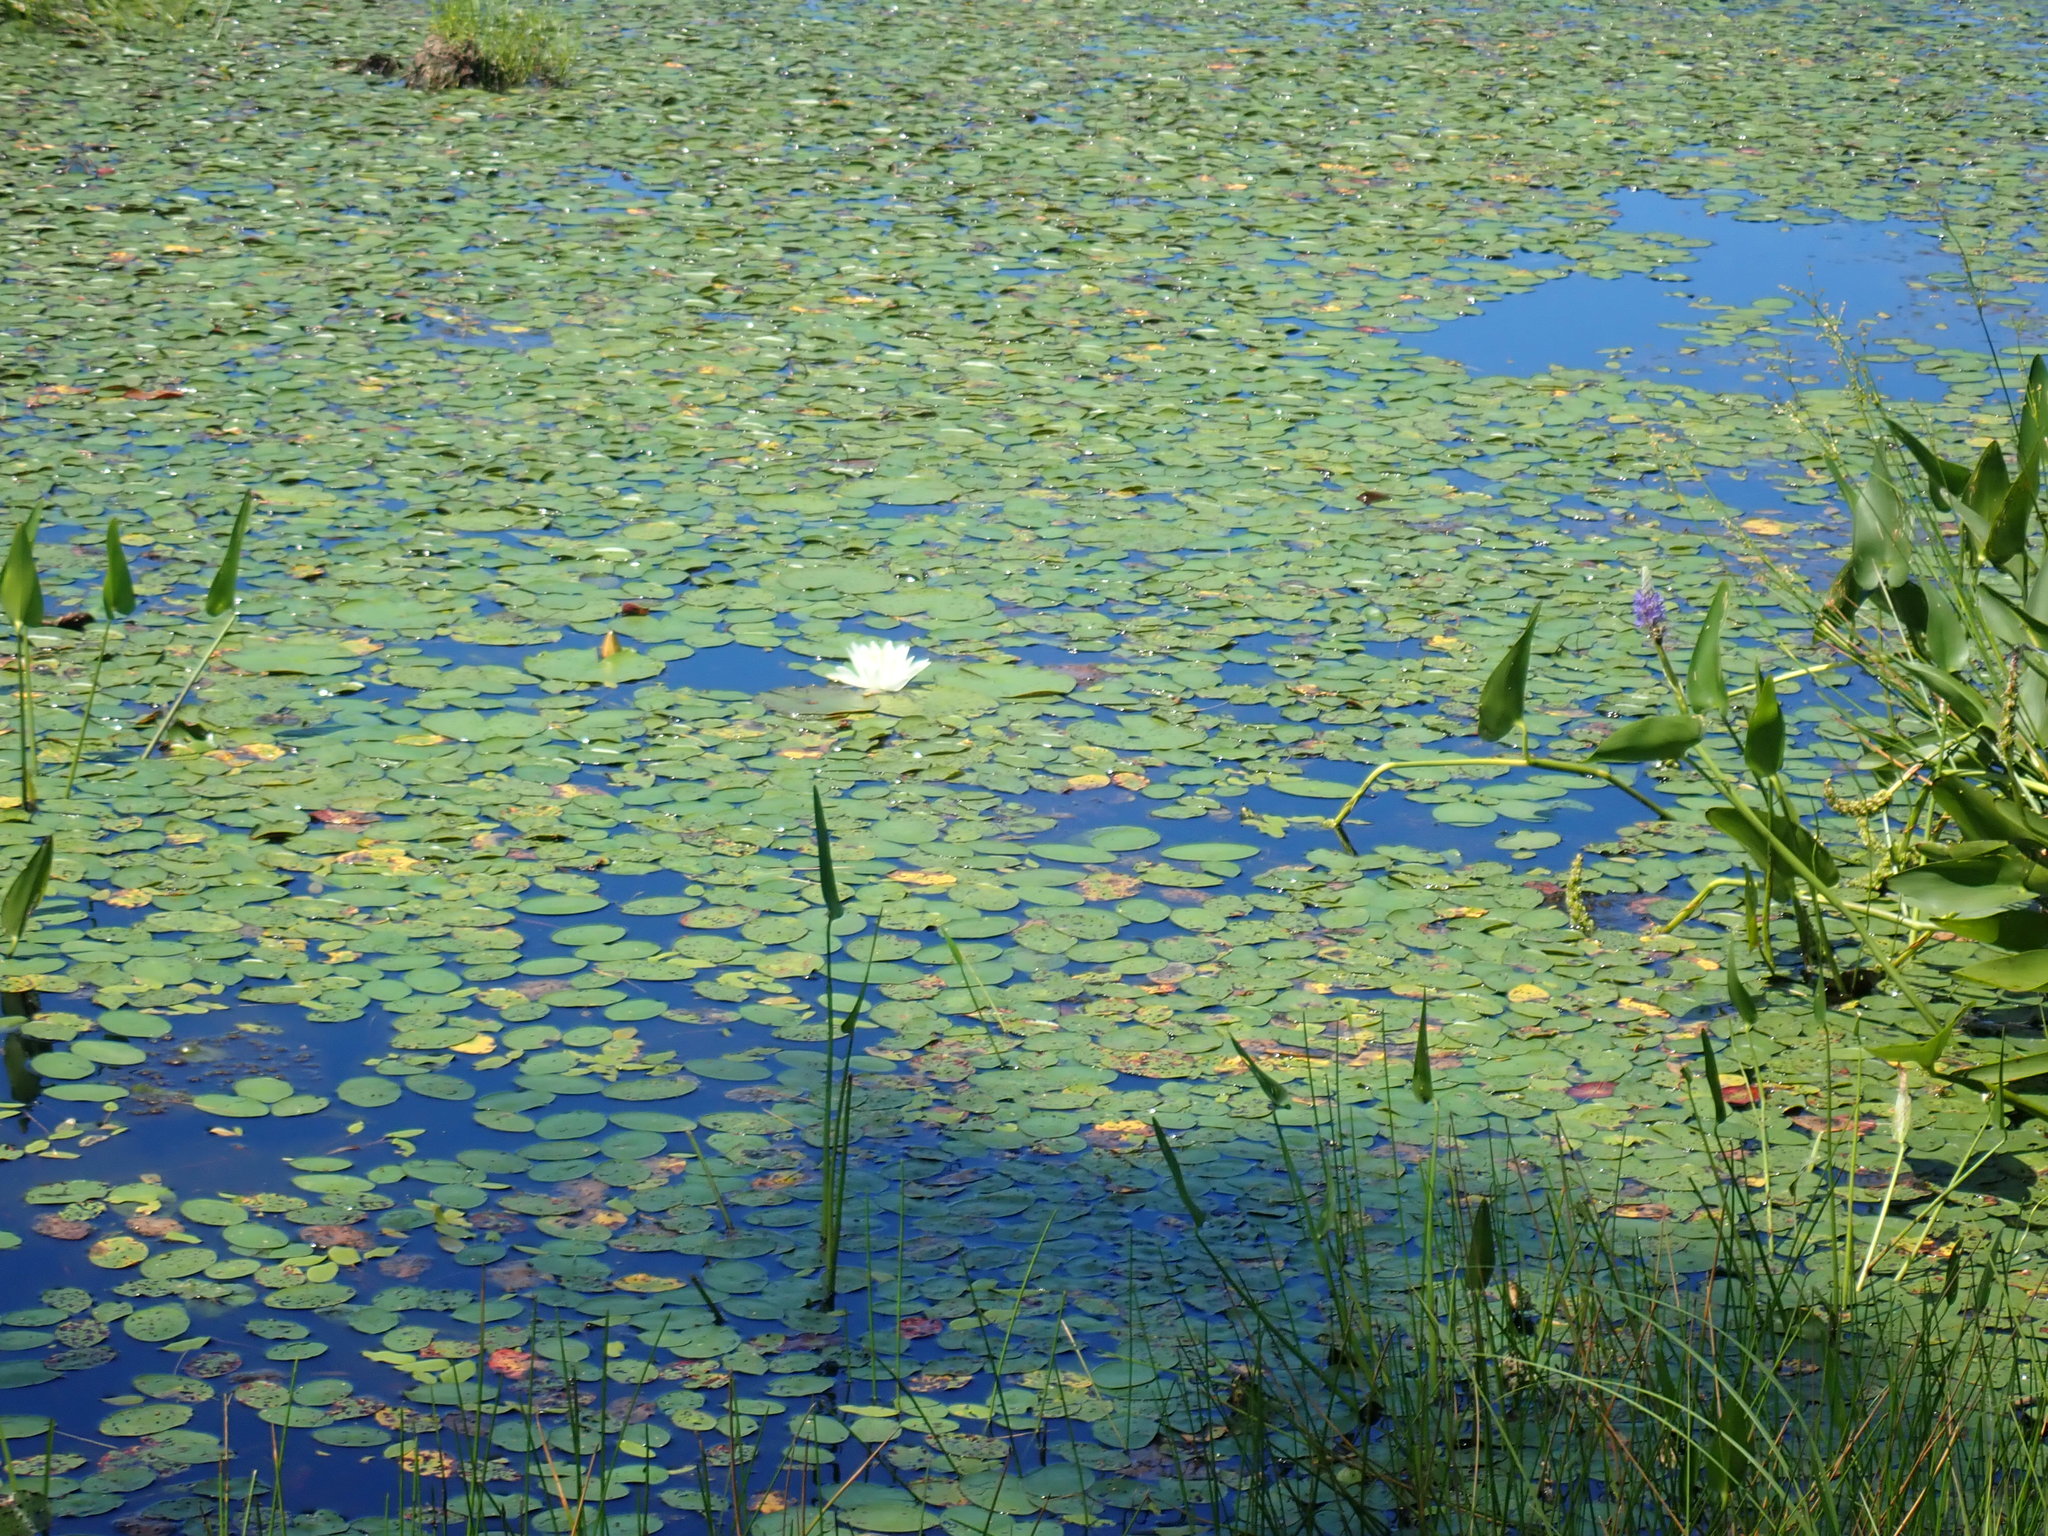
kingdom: Plantae
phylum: Tracheophyta
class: Magnoliopsida
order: Nymphaeales
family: Nymphaeaceae
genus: Nymphaea
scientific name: Nymphaea odorata
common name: Fragrant water-lily
